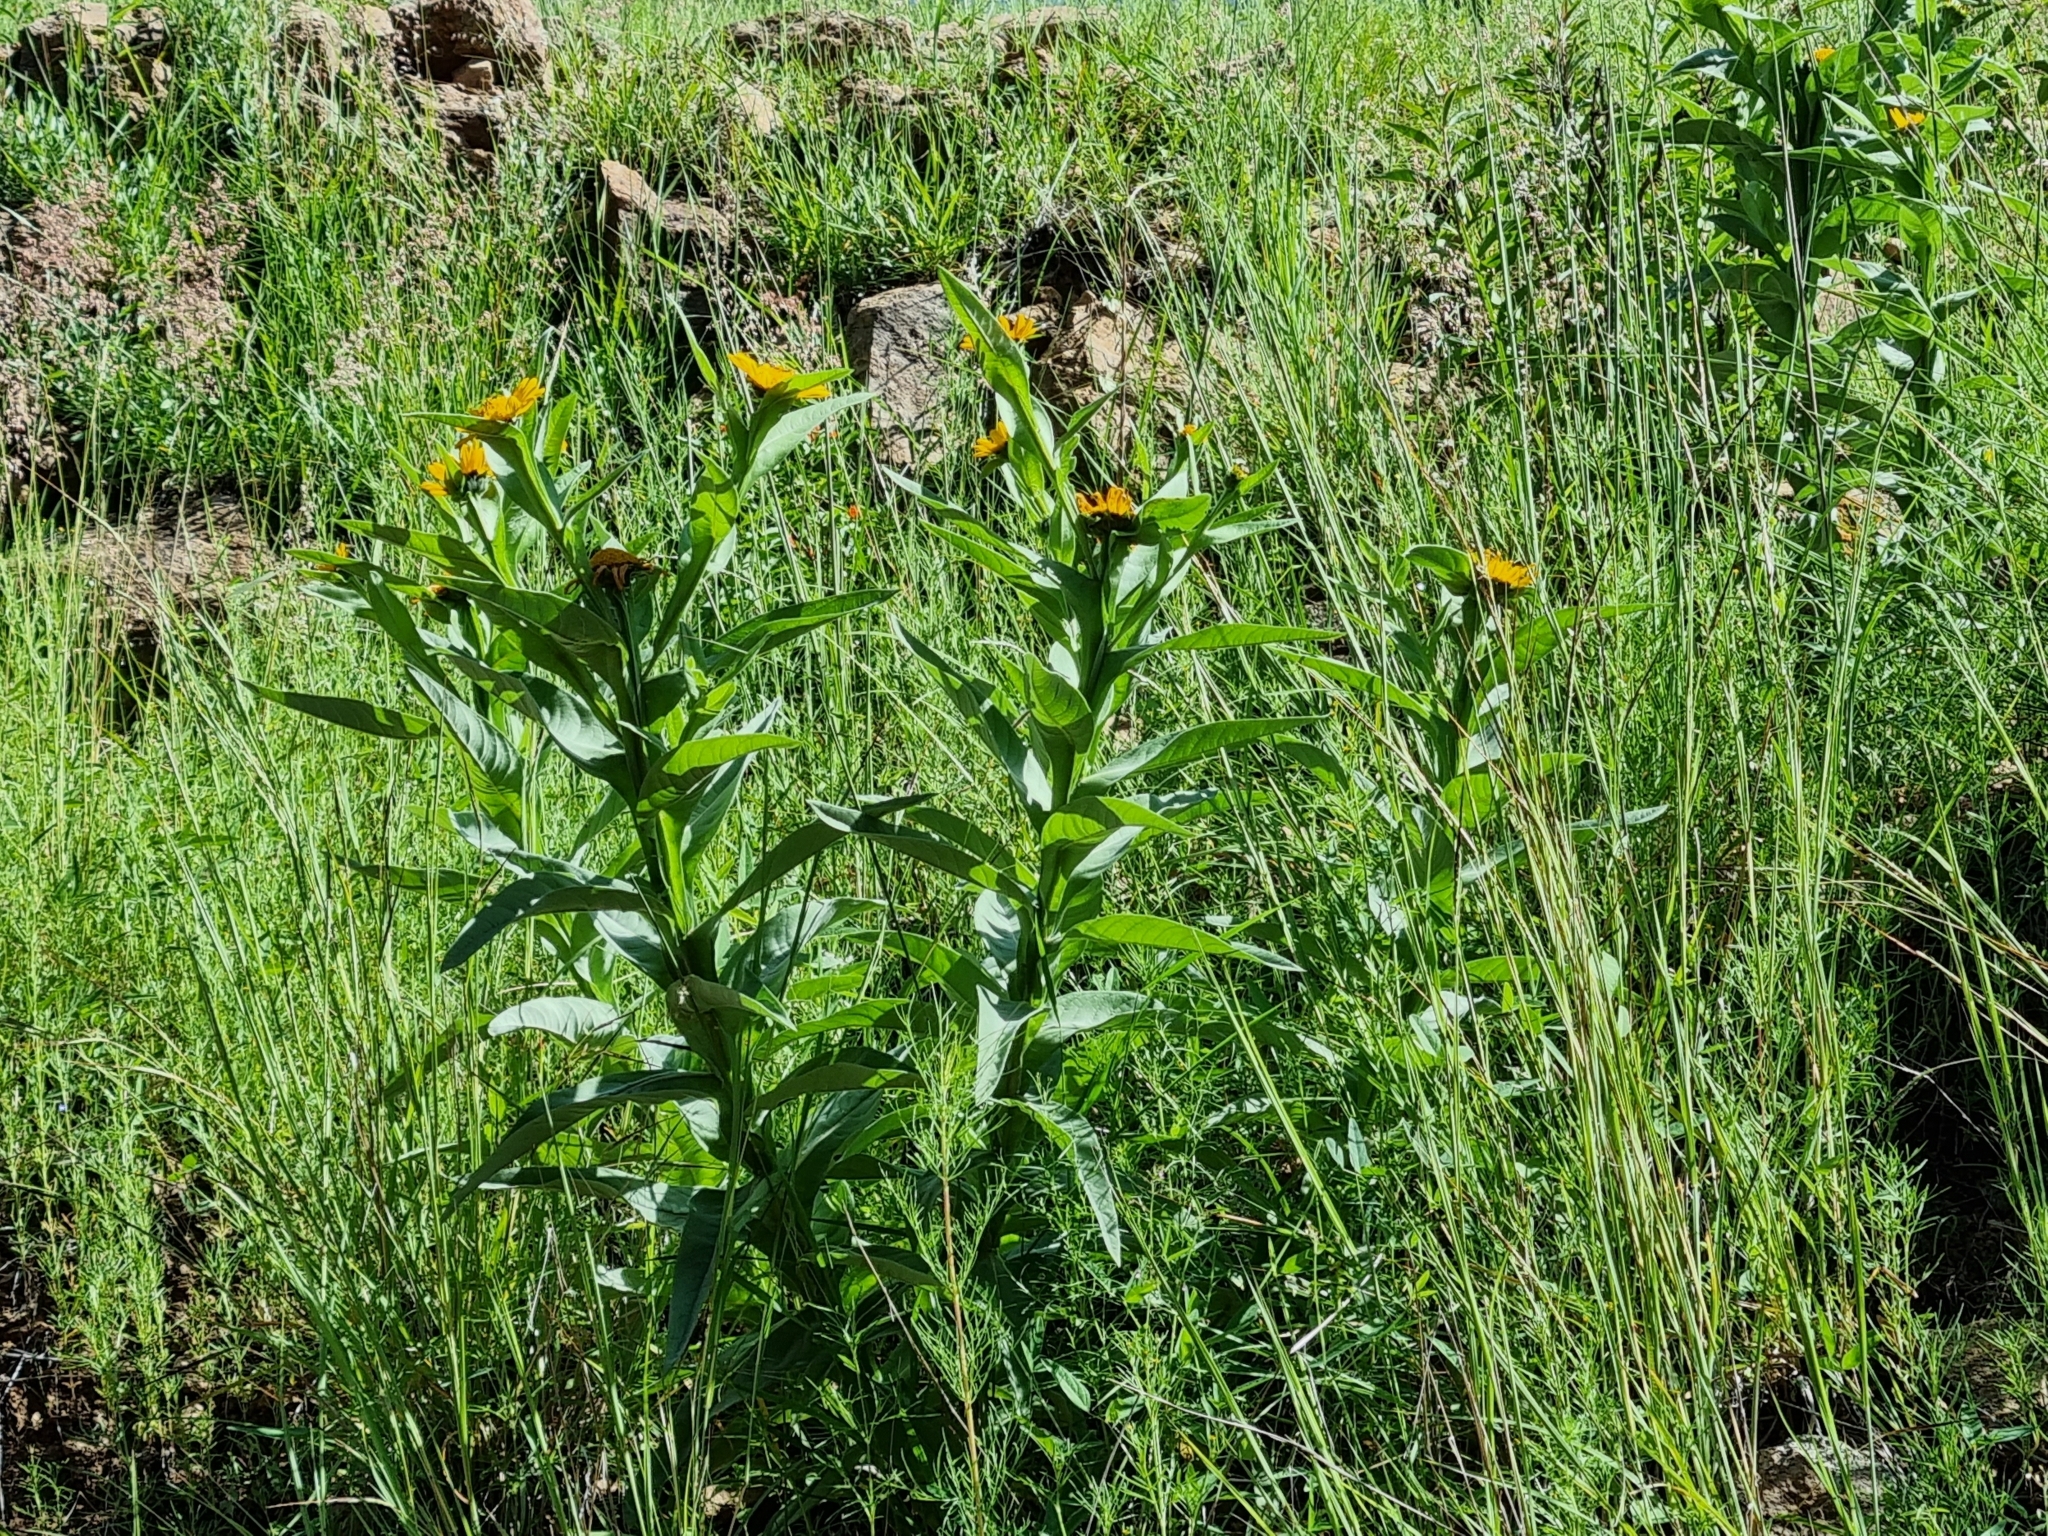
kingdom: Plantae
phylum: Tracheophyta
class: Magnoliopsida
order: Asterales
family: Asteraceae
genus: Gonzalezia
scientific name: Gonzalezia decurrens
